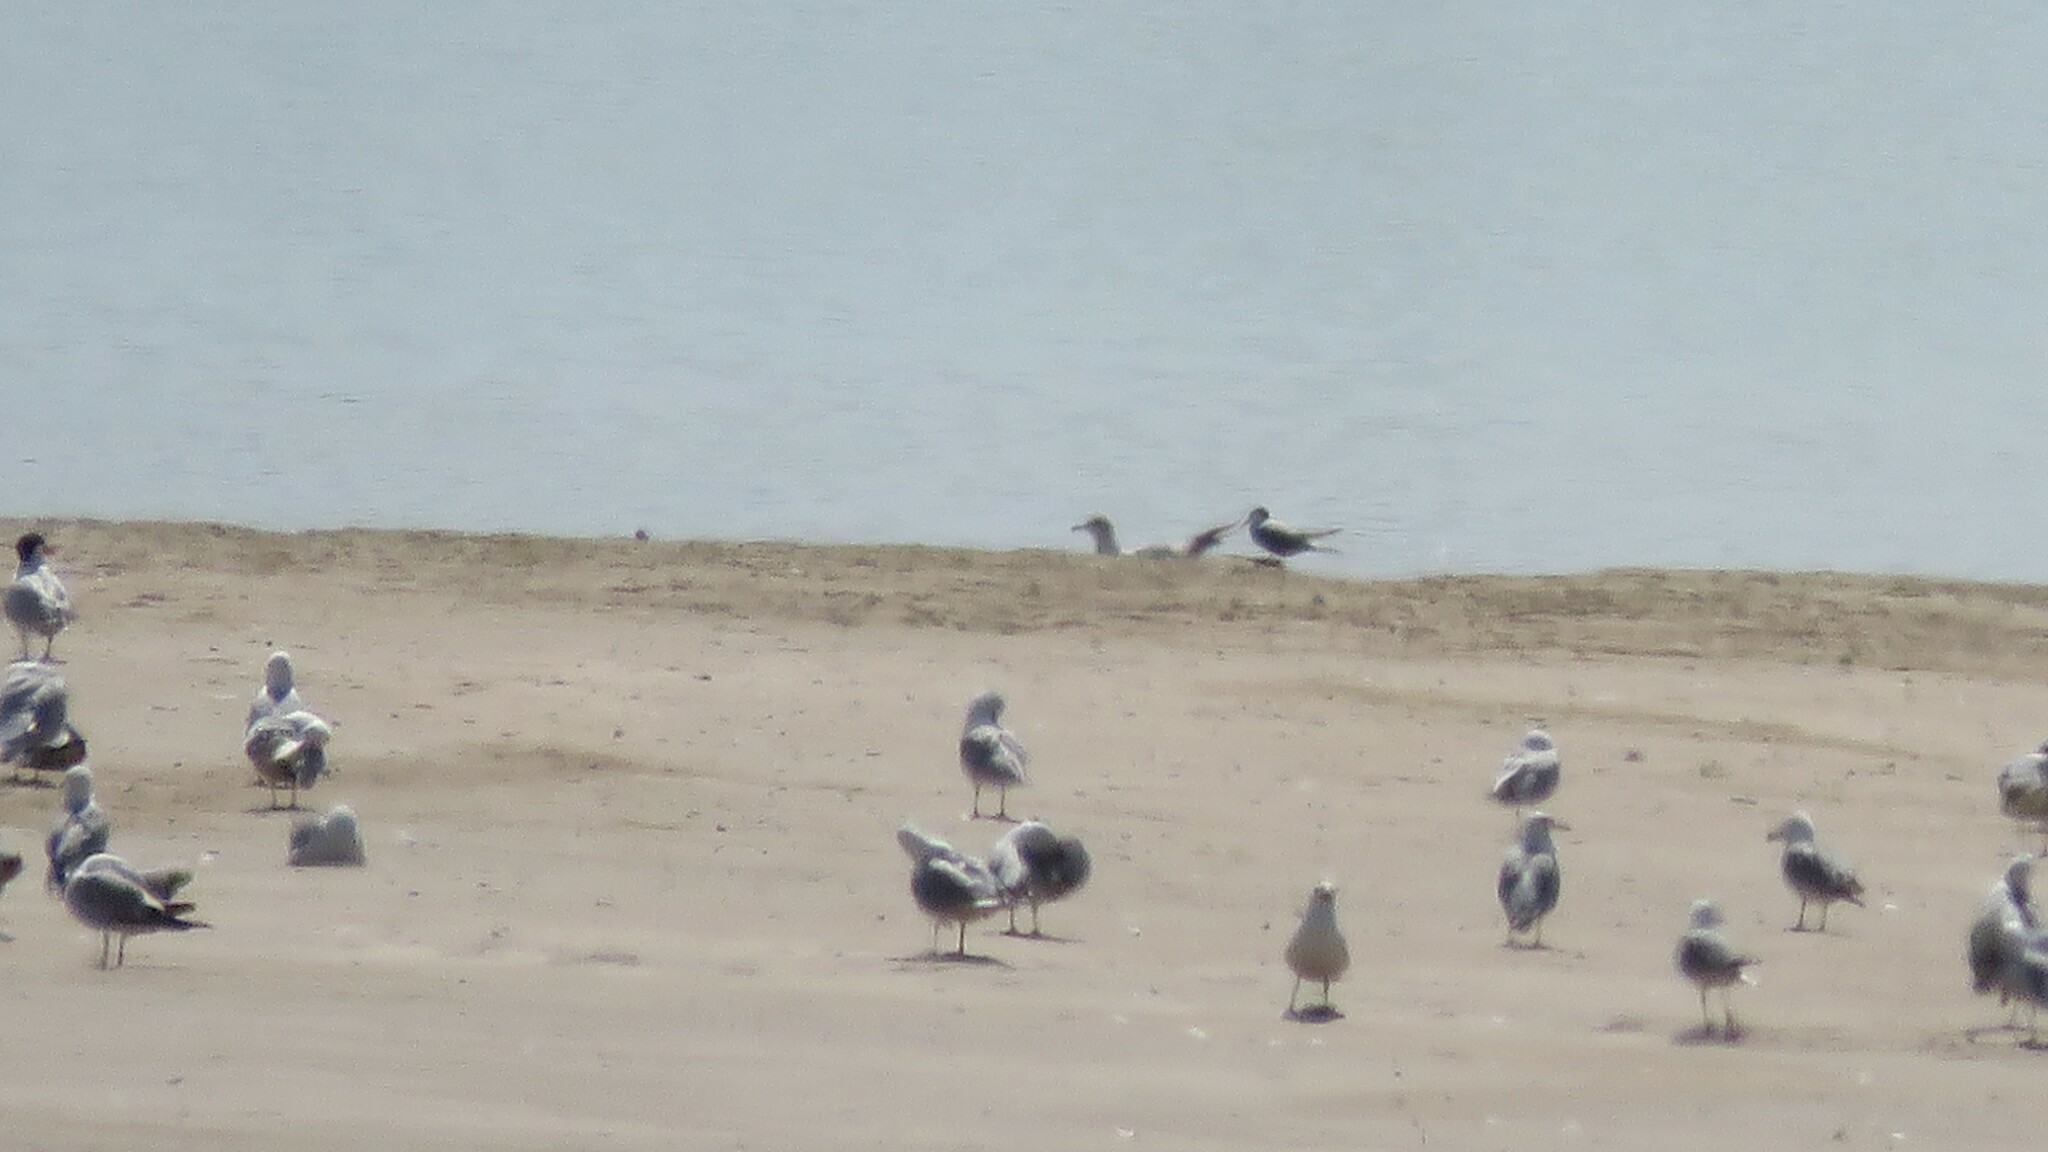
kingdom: Animalia
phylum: Chordata
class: Aves
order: Charadriiformes
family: Laridae
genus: Sterna
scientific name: Sterna hirundo
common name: Common tern
